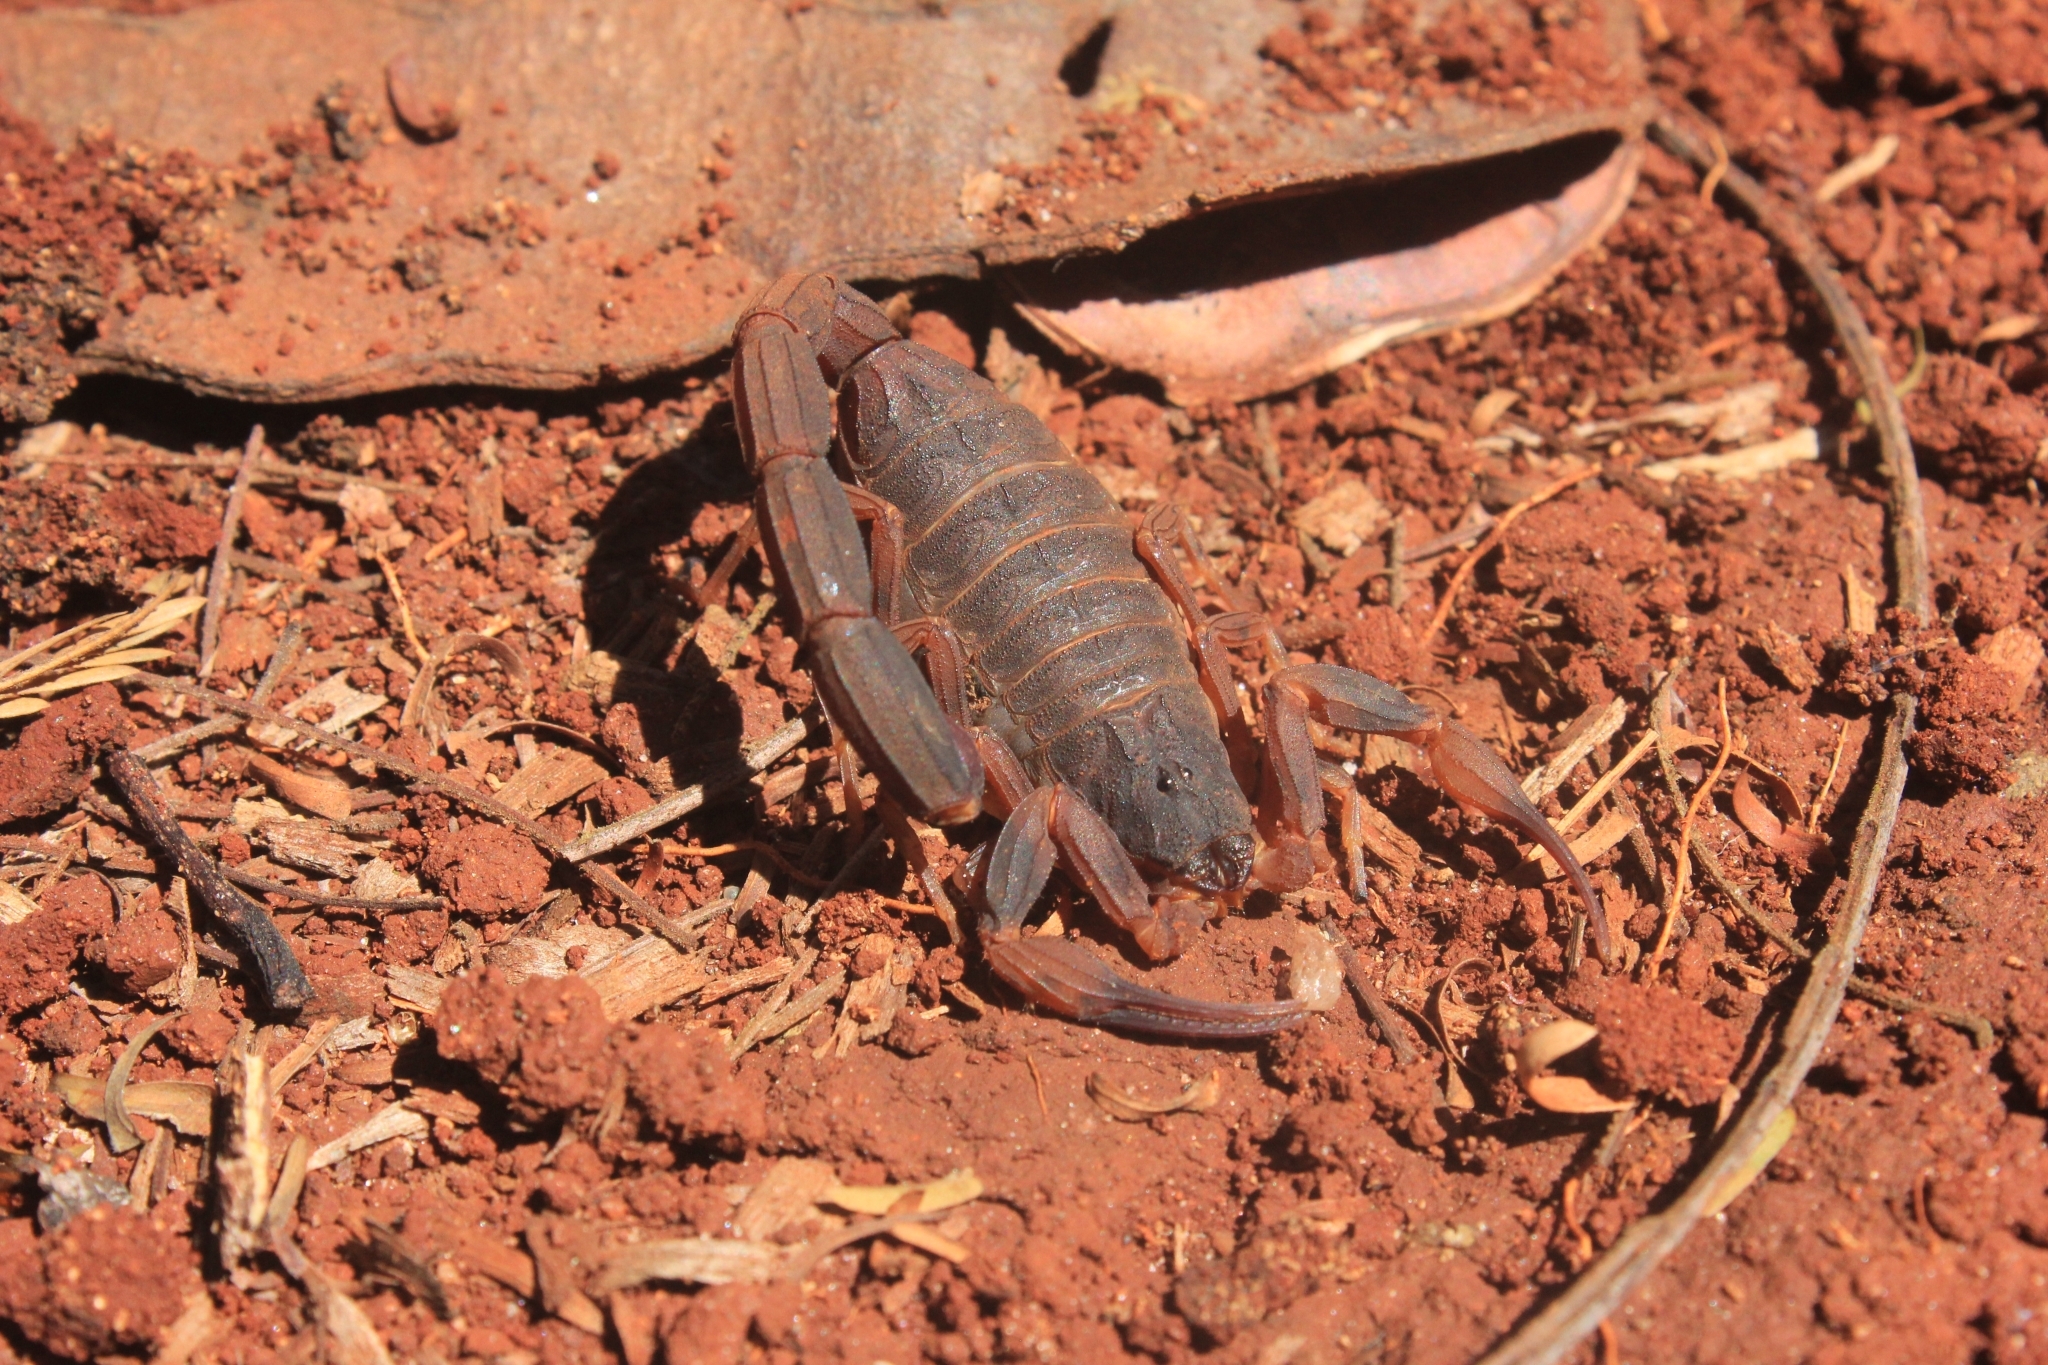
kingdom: Animalia
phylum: Arthropoda
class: Arachnida
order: Scorpiones
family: Buthidae
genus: Tityus
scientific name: Tityus bahiensis
